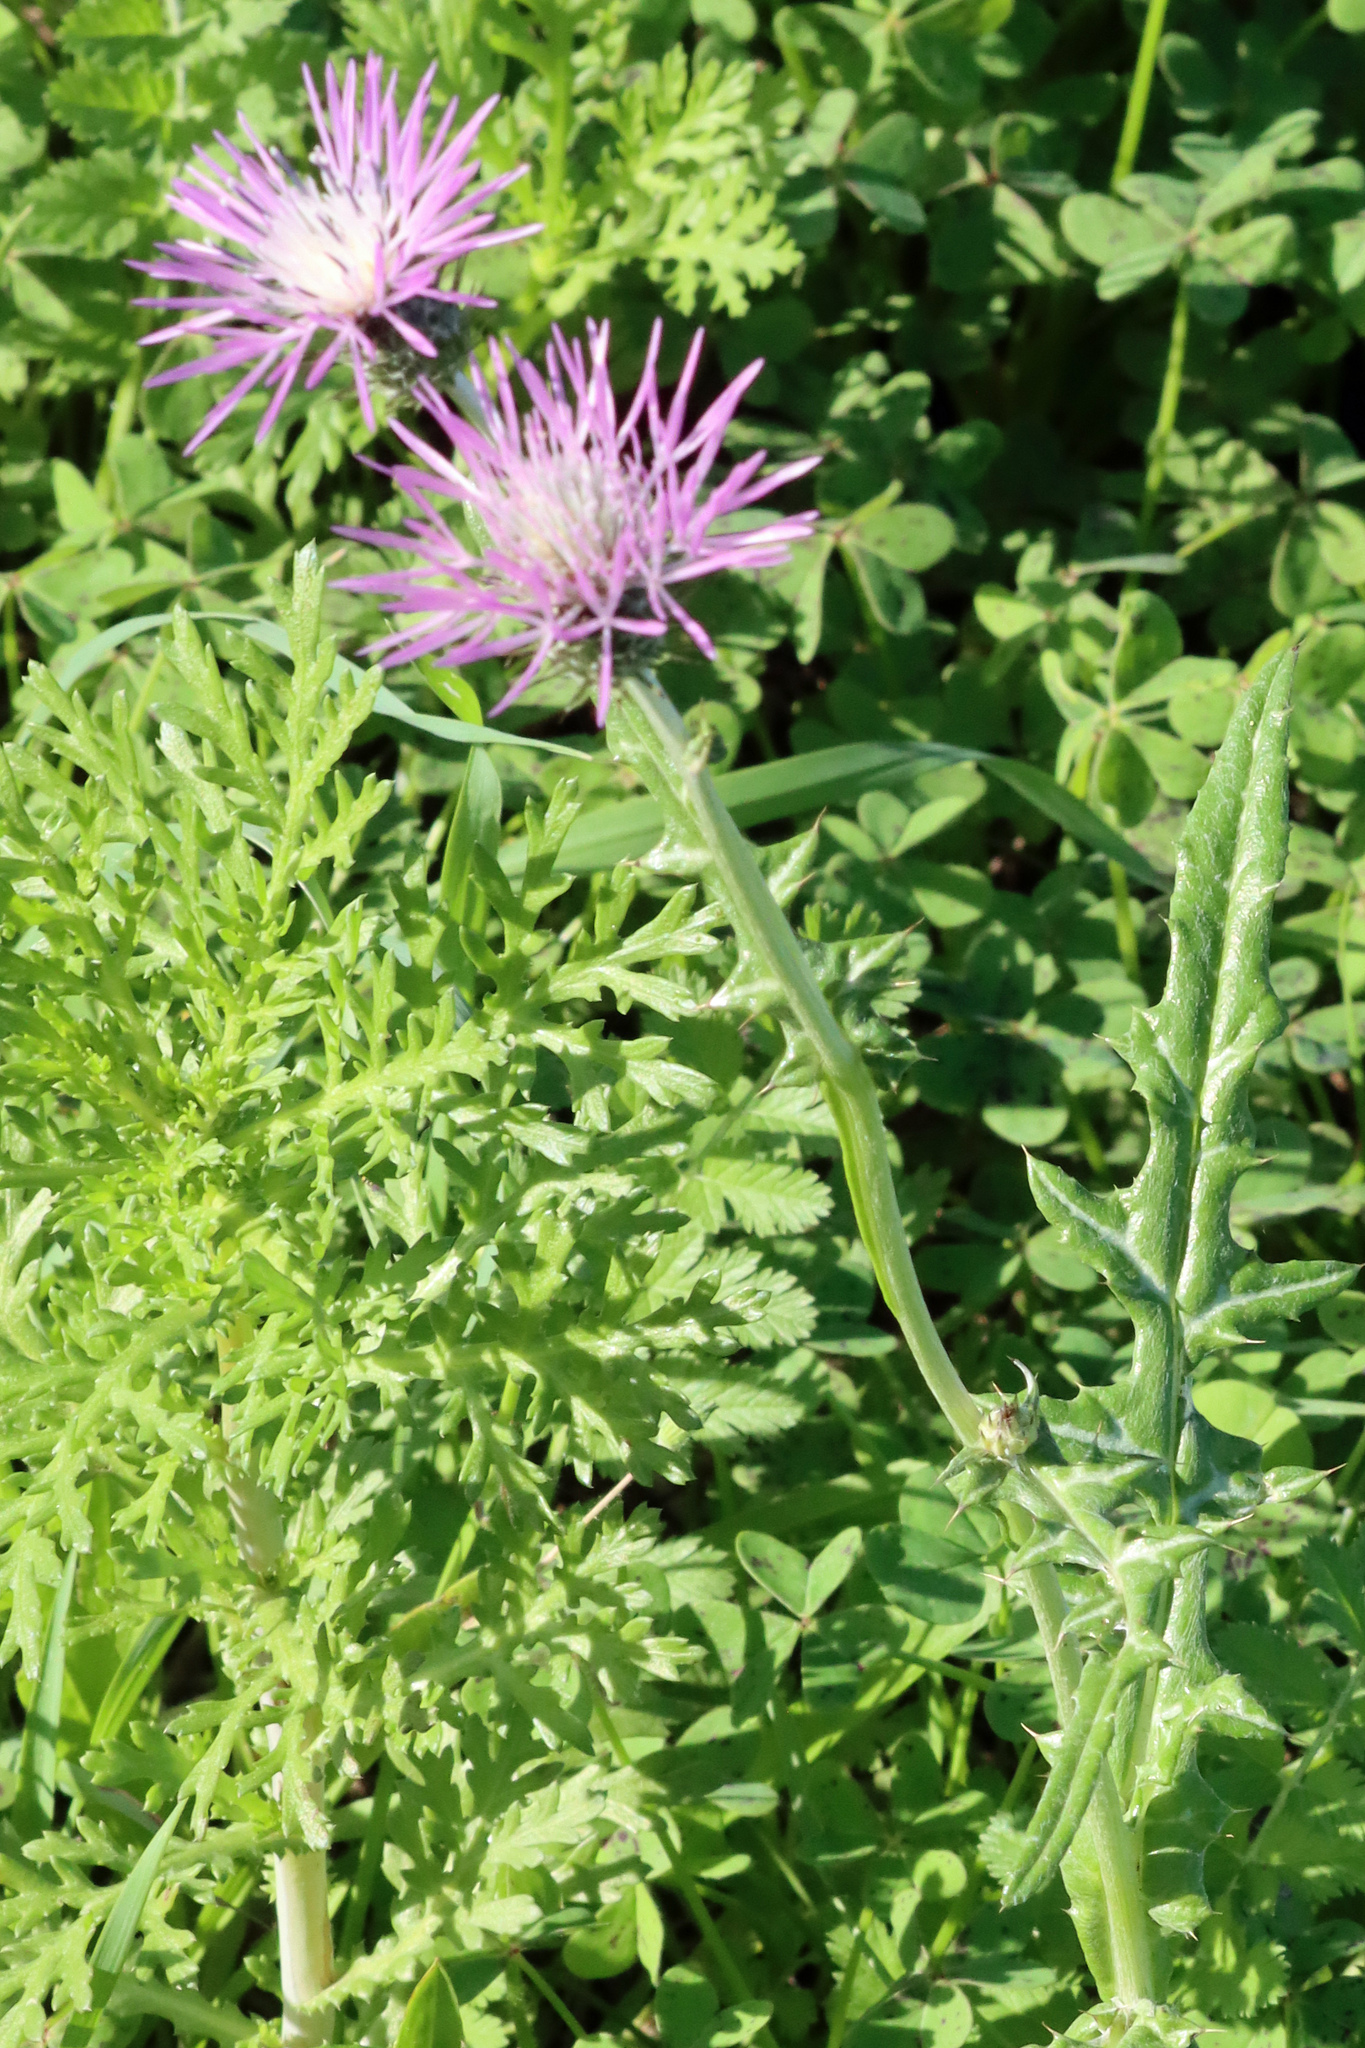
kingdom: Plantae
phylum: Tracheophyta
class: Magnoliopsida
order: Asterales
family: Asteraceae
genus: Galactites
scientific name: Galactites tomentosa
